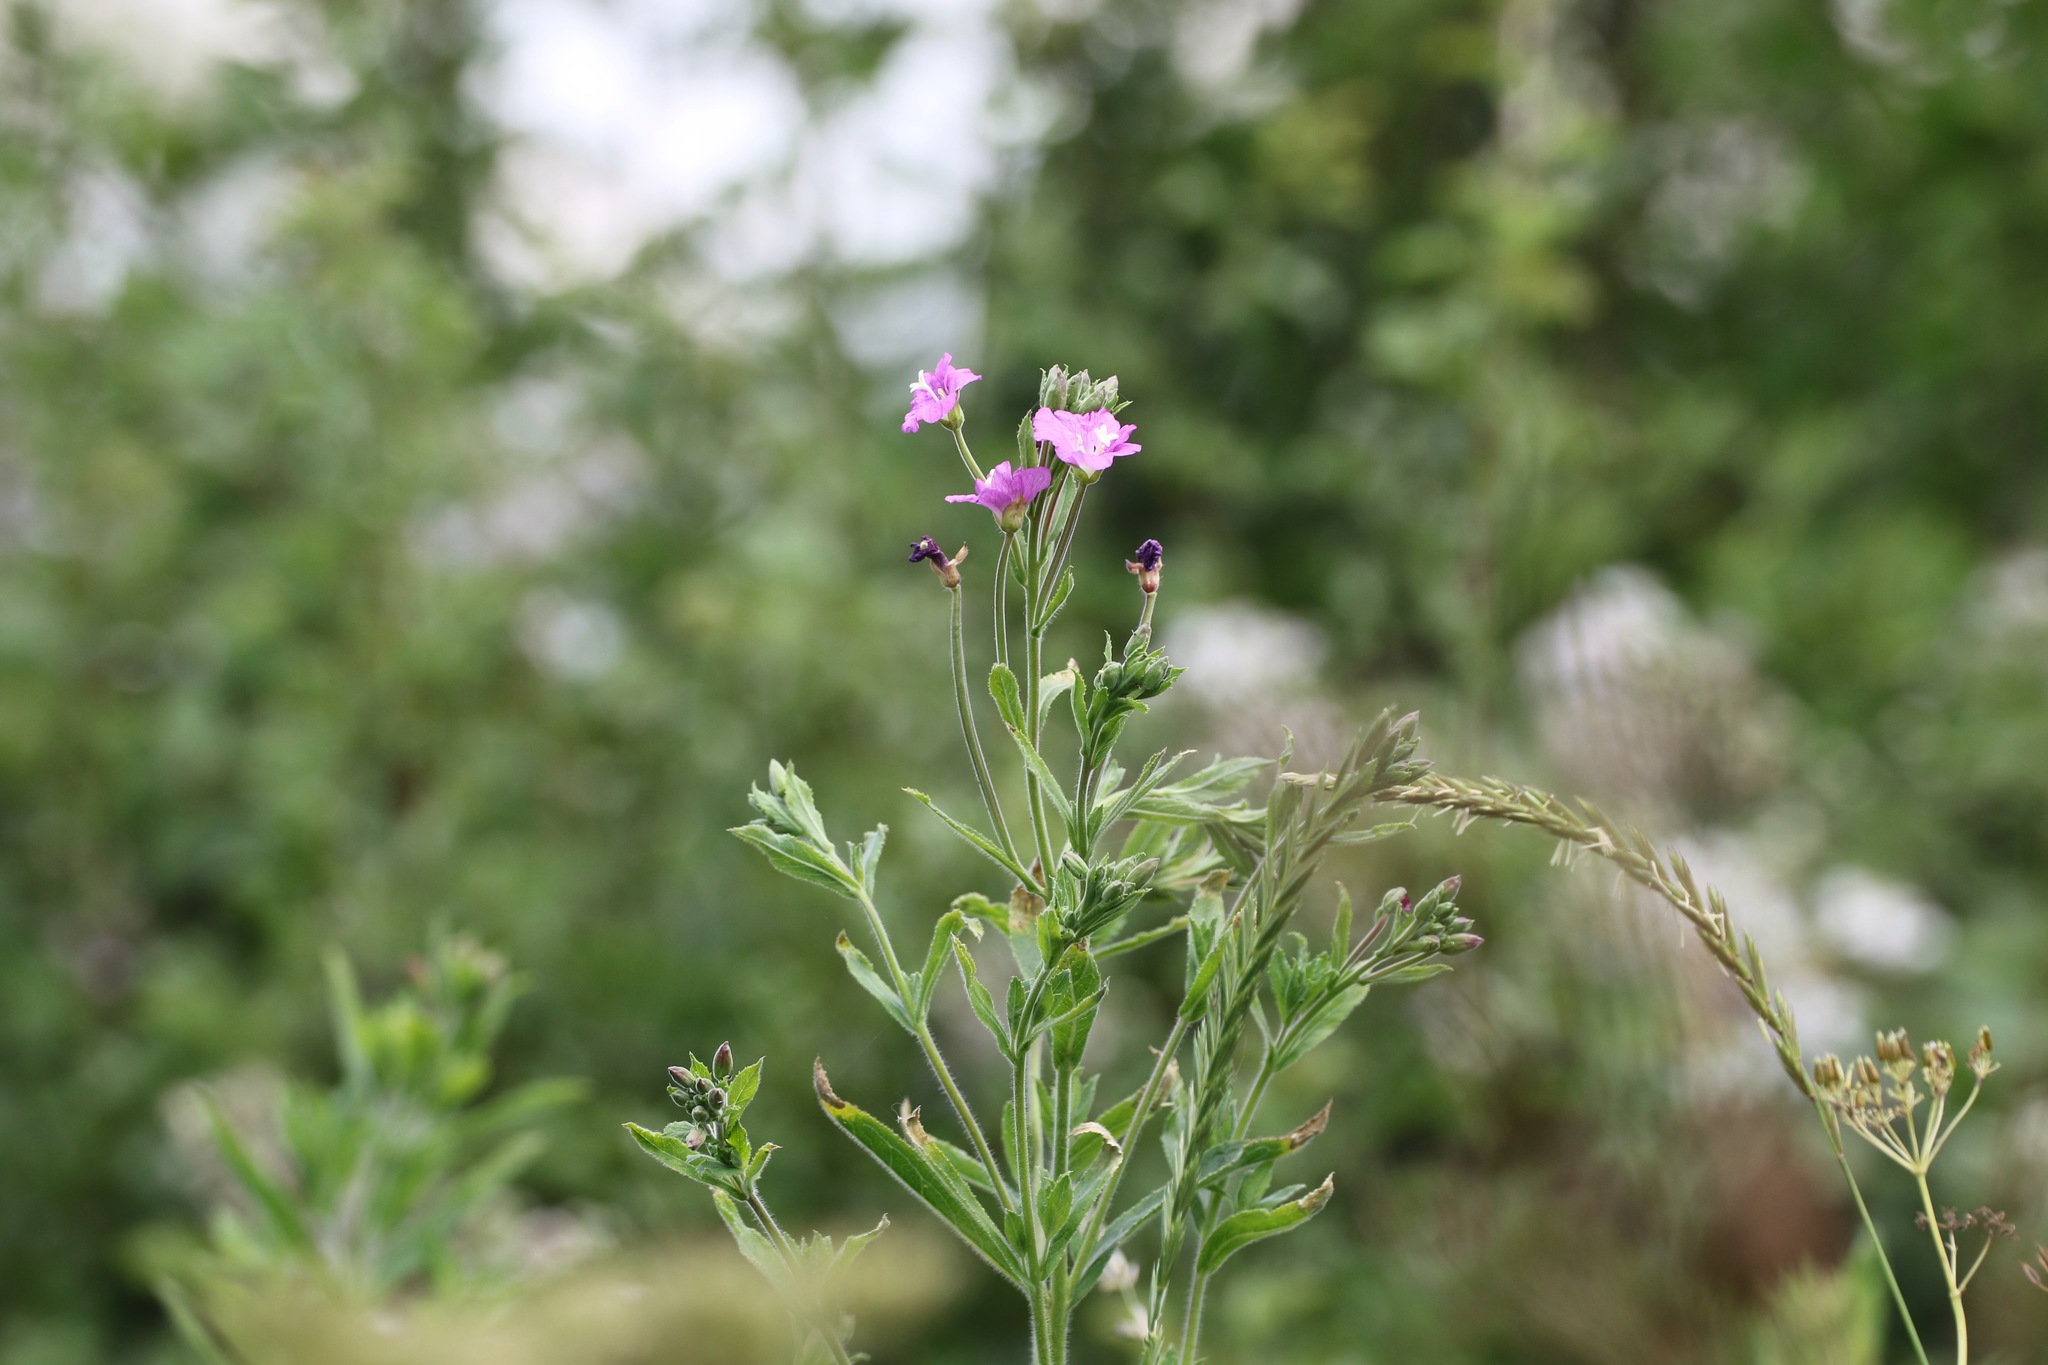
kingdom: Plantae
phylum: Tracheophyta
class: Magnoliopsida
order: Myrtales
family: Onagraceae
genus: Epilobium
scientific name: Epilobium hirsutum
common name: Great willowherb
